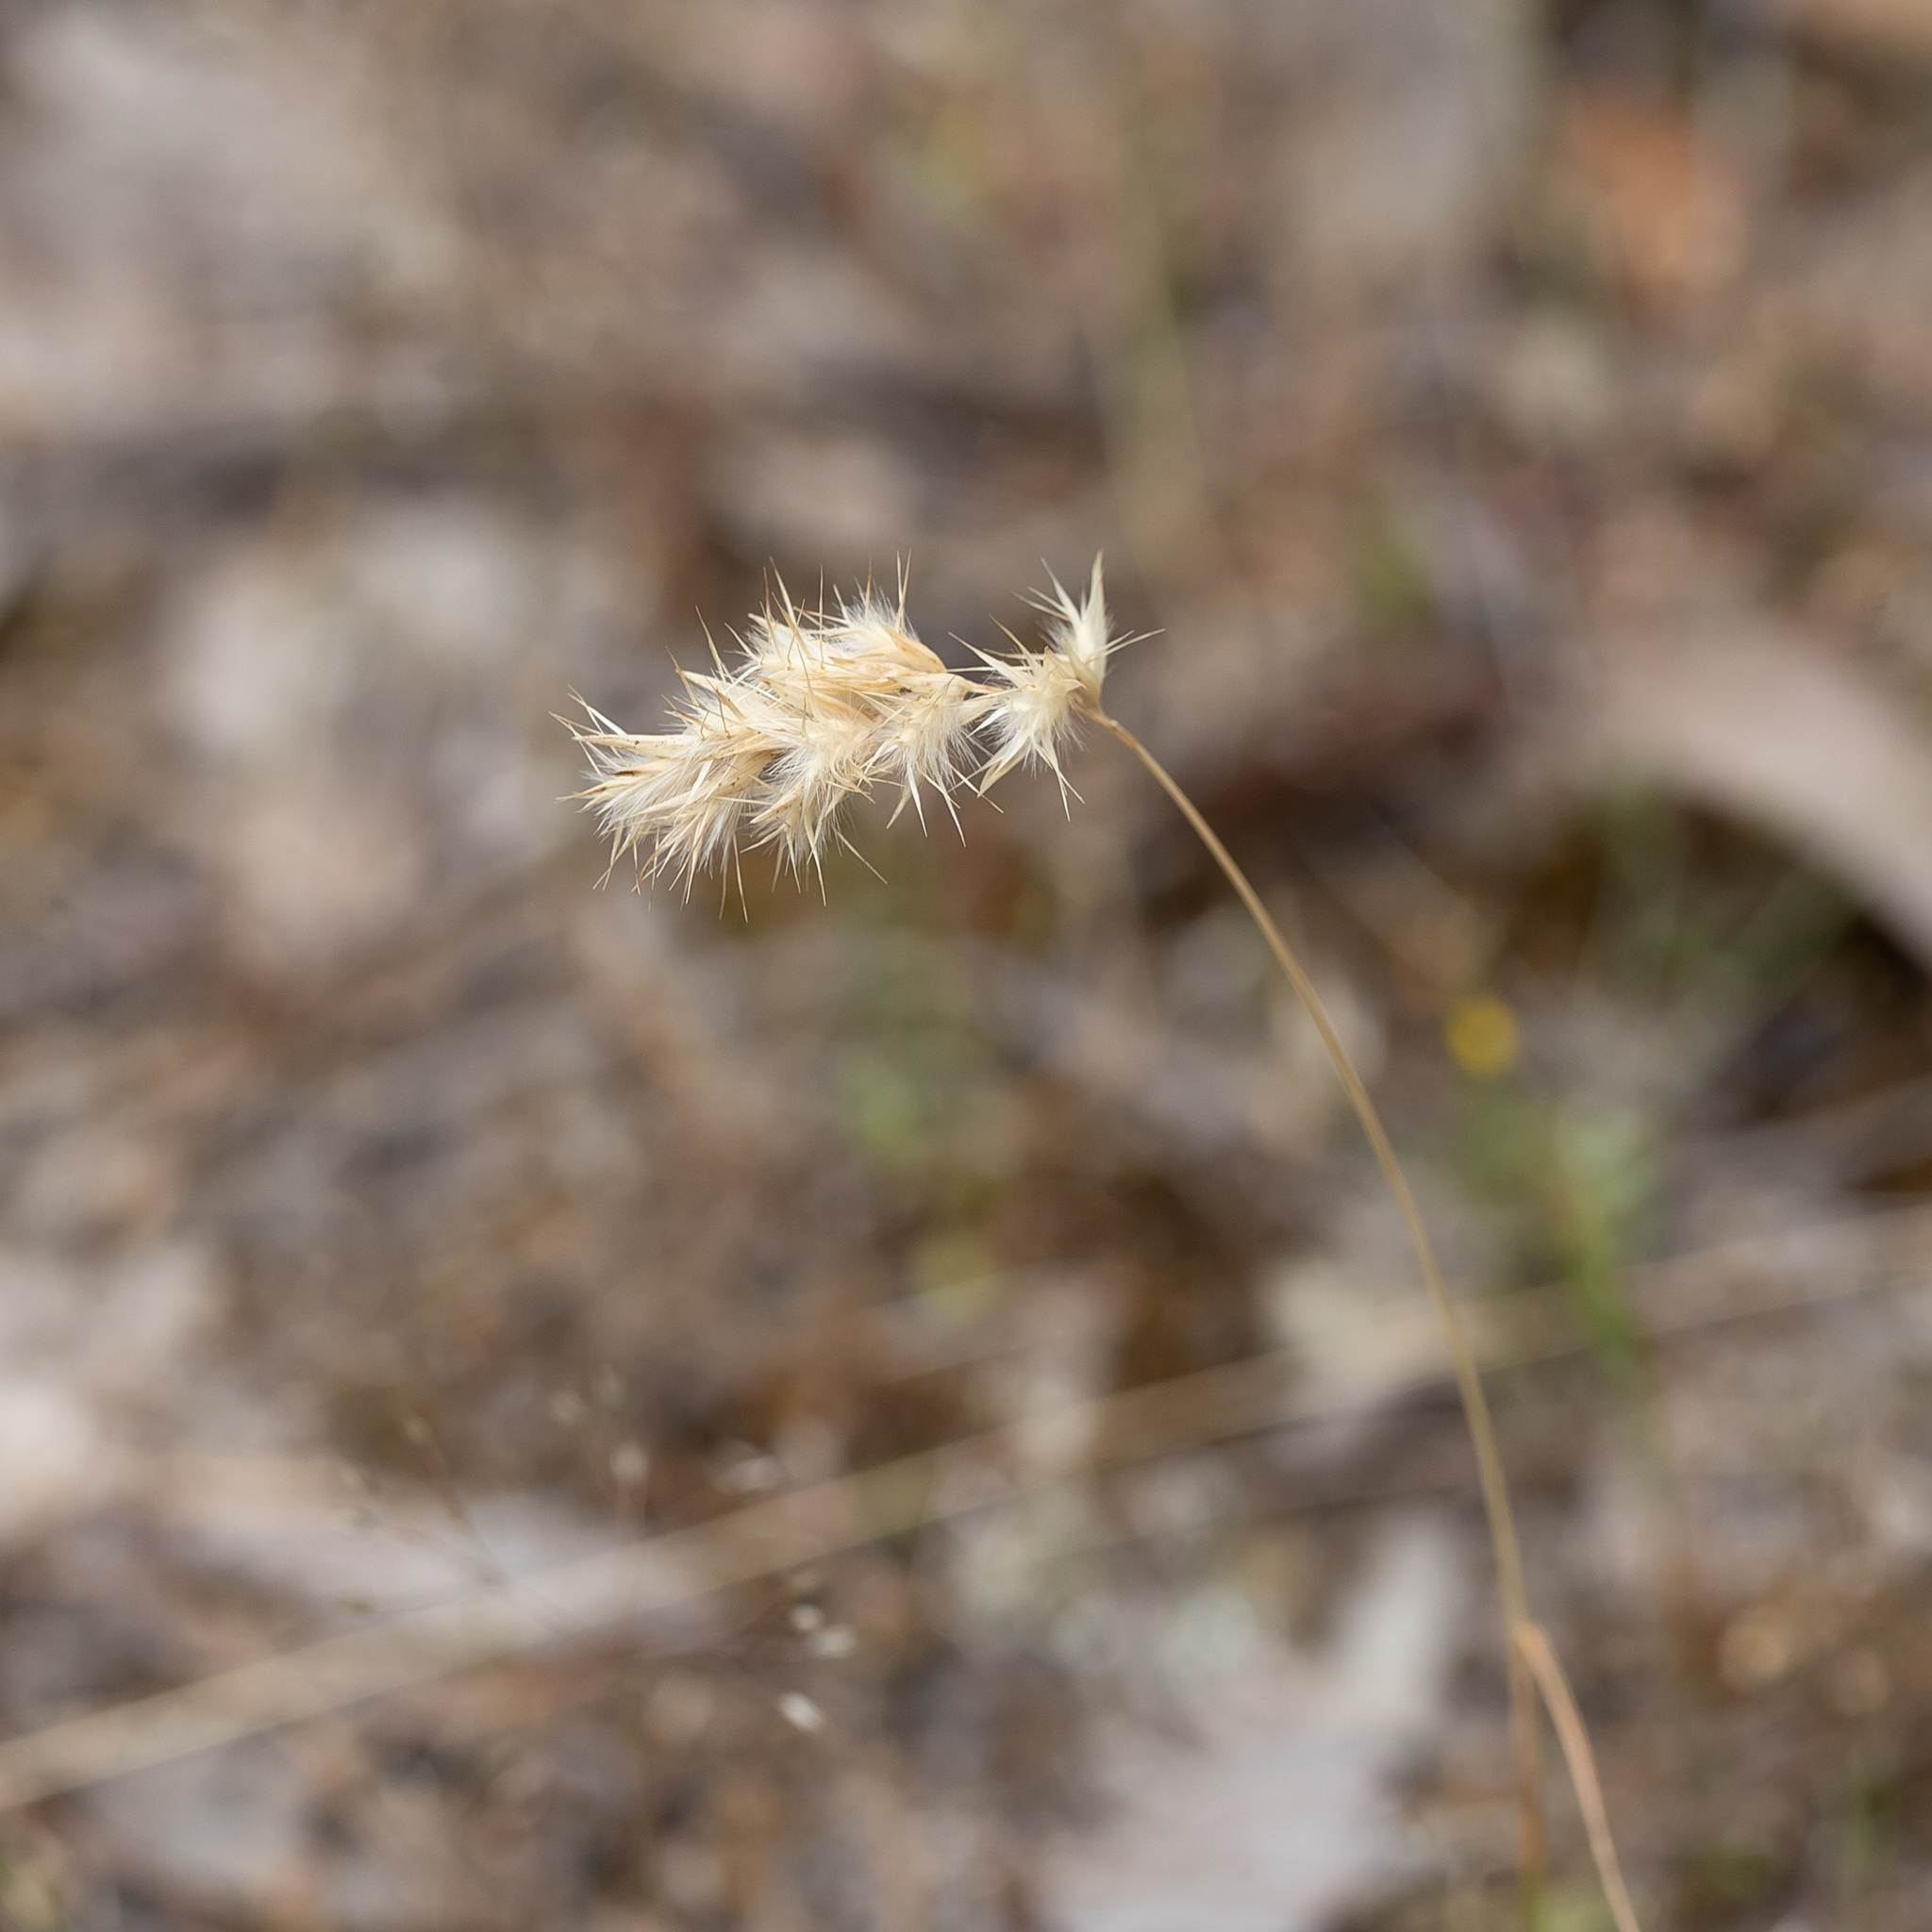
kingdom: Plantae
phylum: Tracheophyta
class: Liliopsida
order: Poales
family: Poaceae
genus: Rytidosperma
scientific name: Rytidosperma geniculatum
